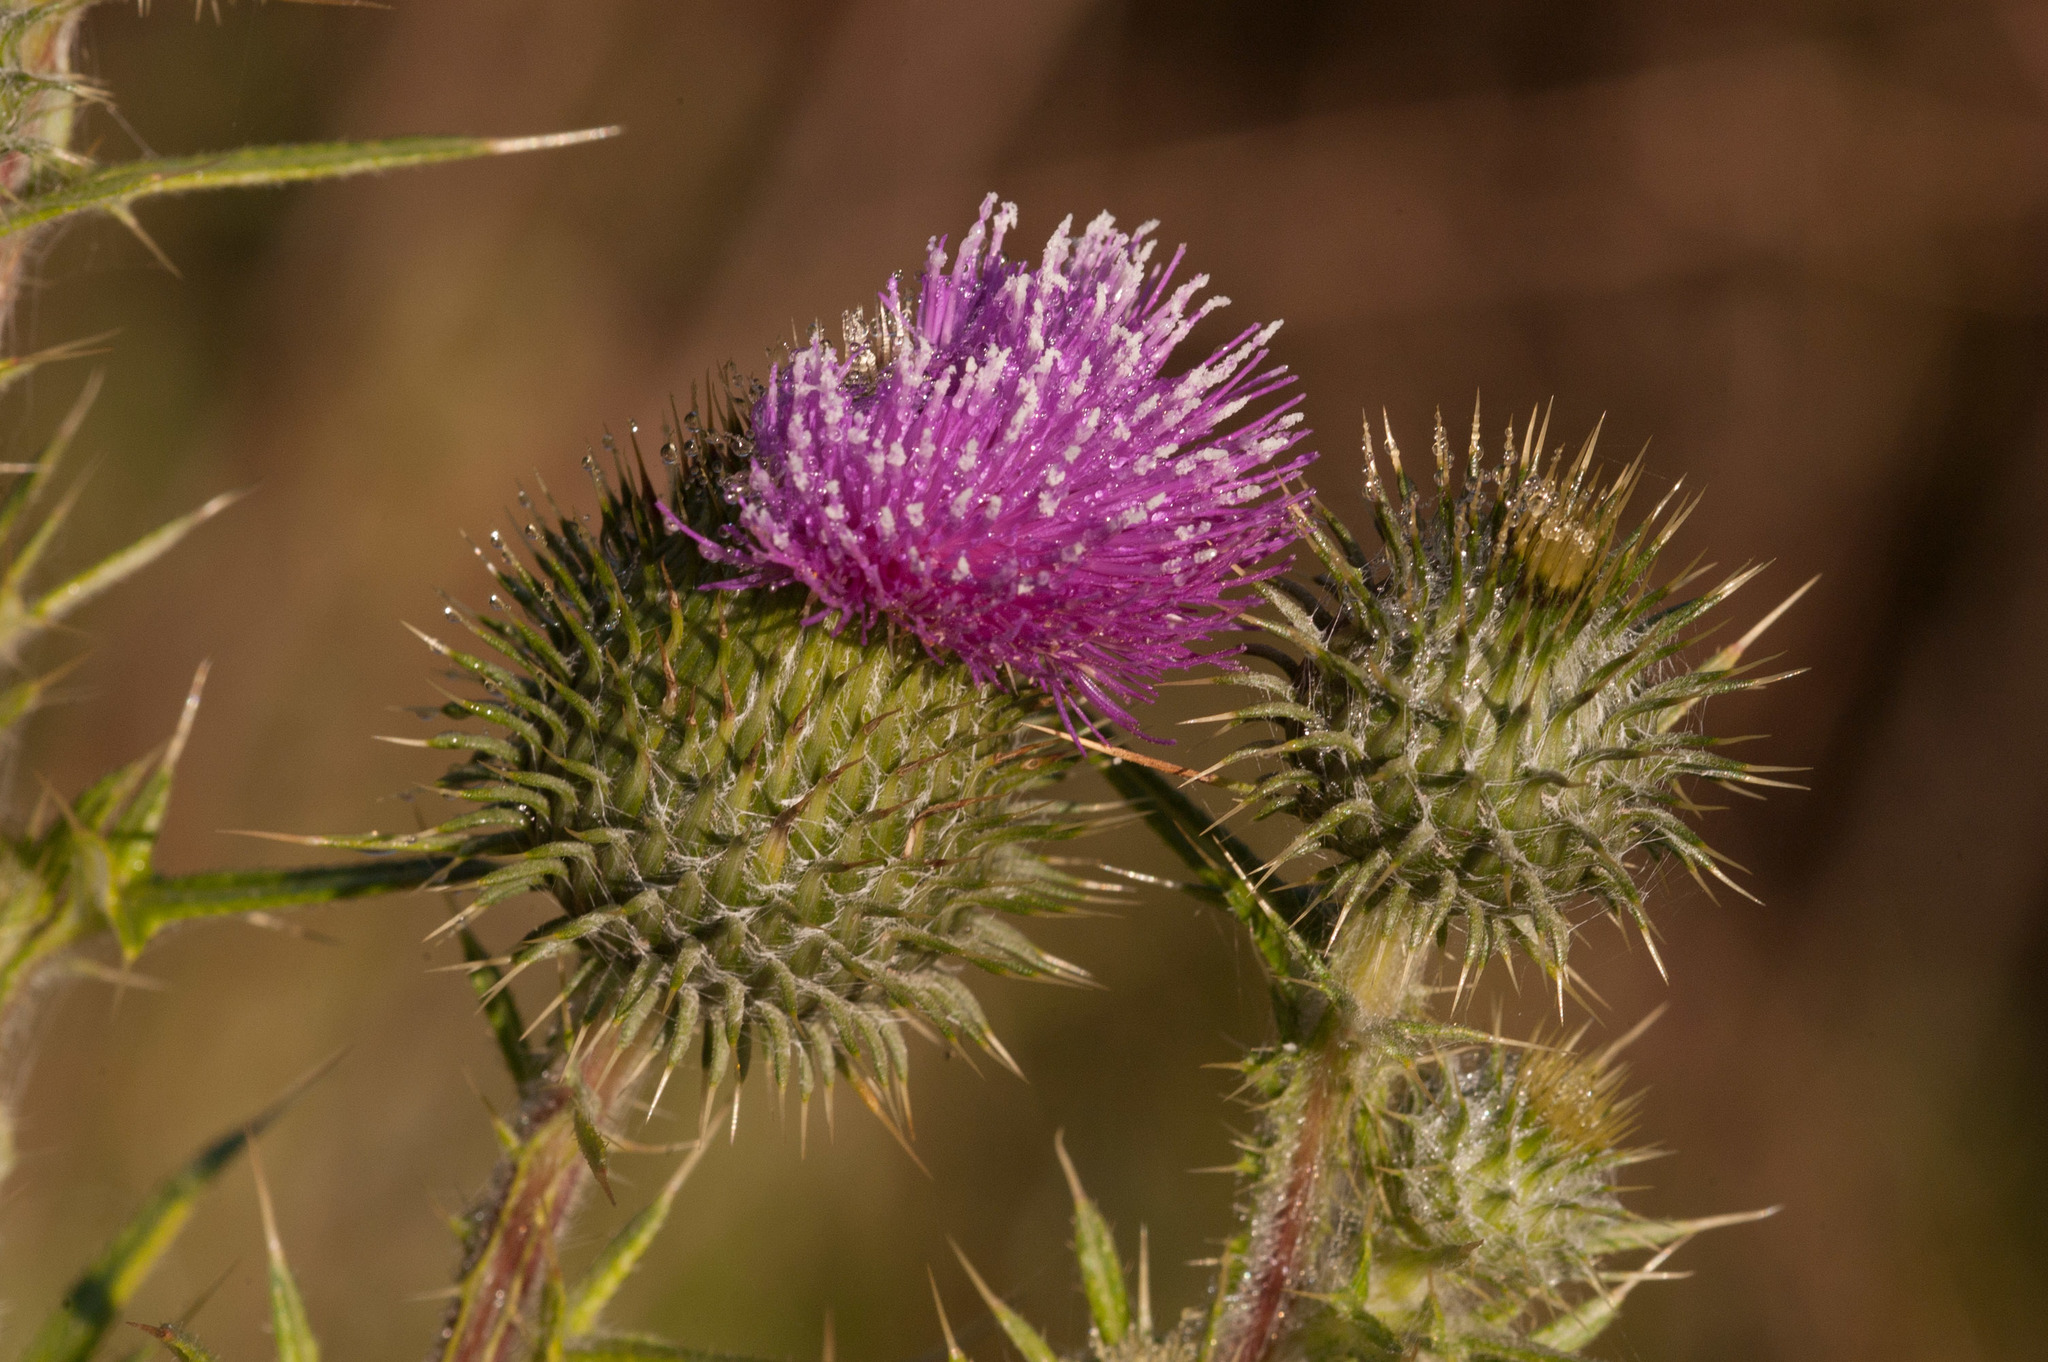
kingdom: Plantae
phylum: Tracheophyta
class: Magnoliopsida
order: Asterales
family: Asteraceae
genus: Cirsium
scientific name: Cirsium vulgare
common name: Bull thistle
